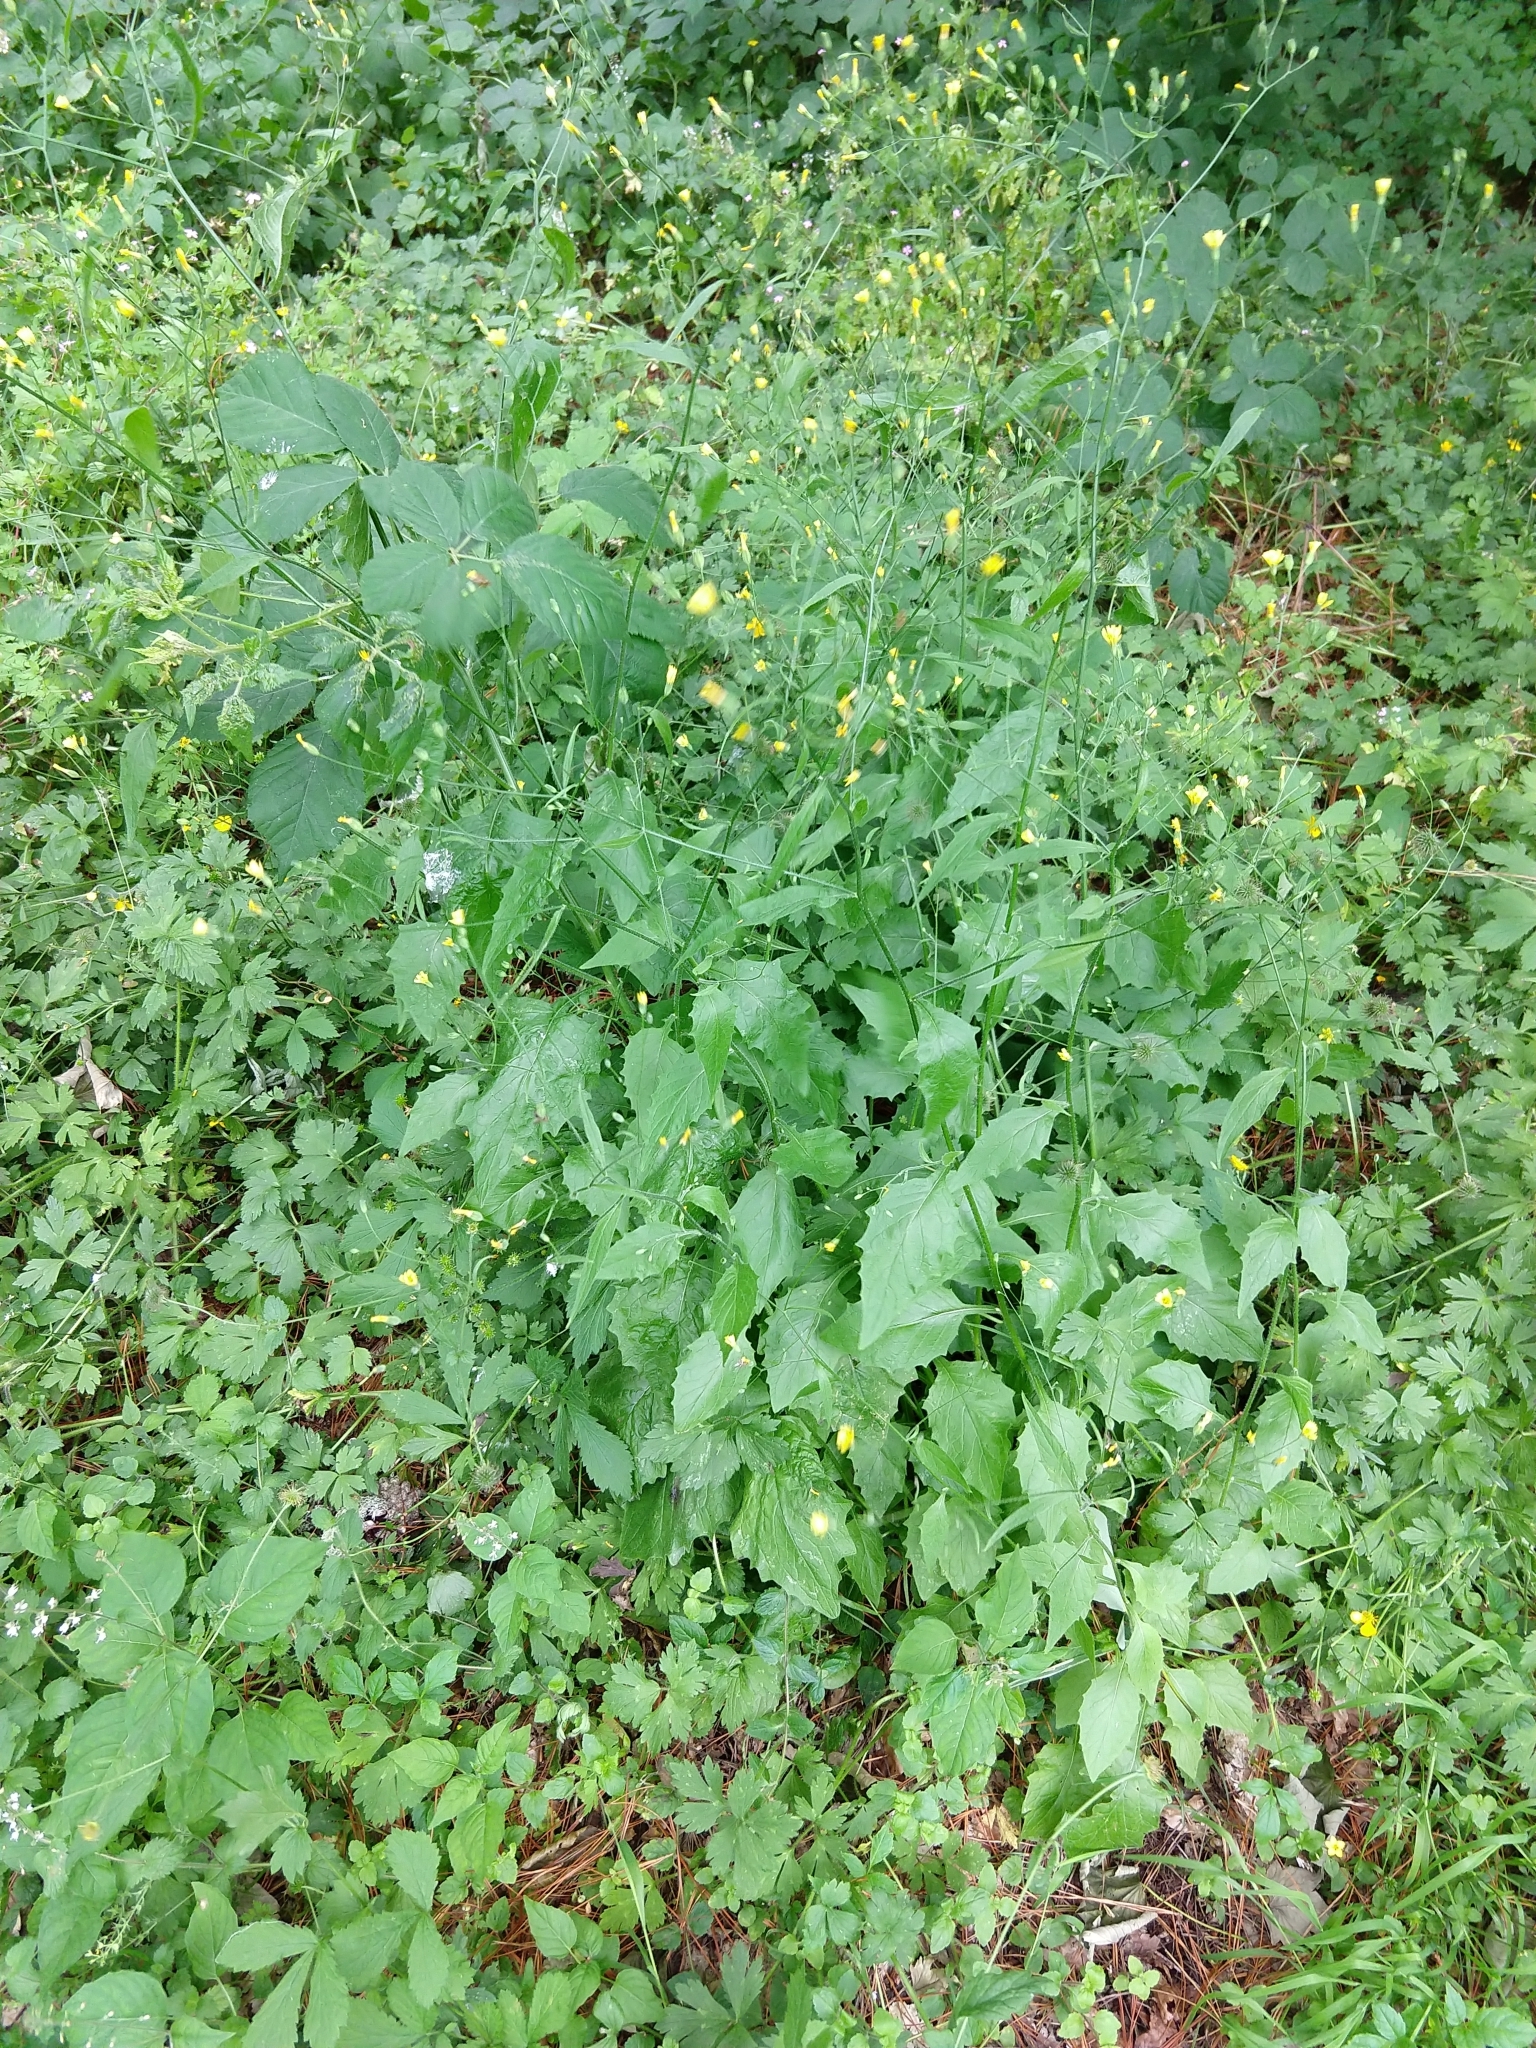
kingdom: Plantae
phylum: Tracheophyta
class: Magnoliopsida
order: Asterales
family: Asteraceae
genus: Lapsana
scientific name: Lapsana communis
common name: Nipplewort
